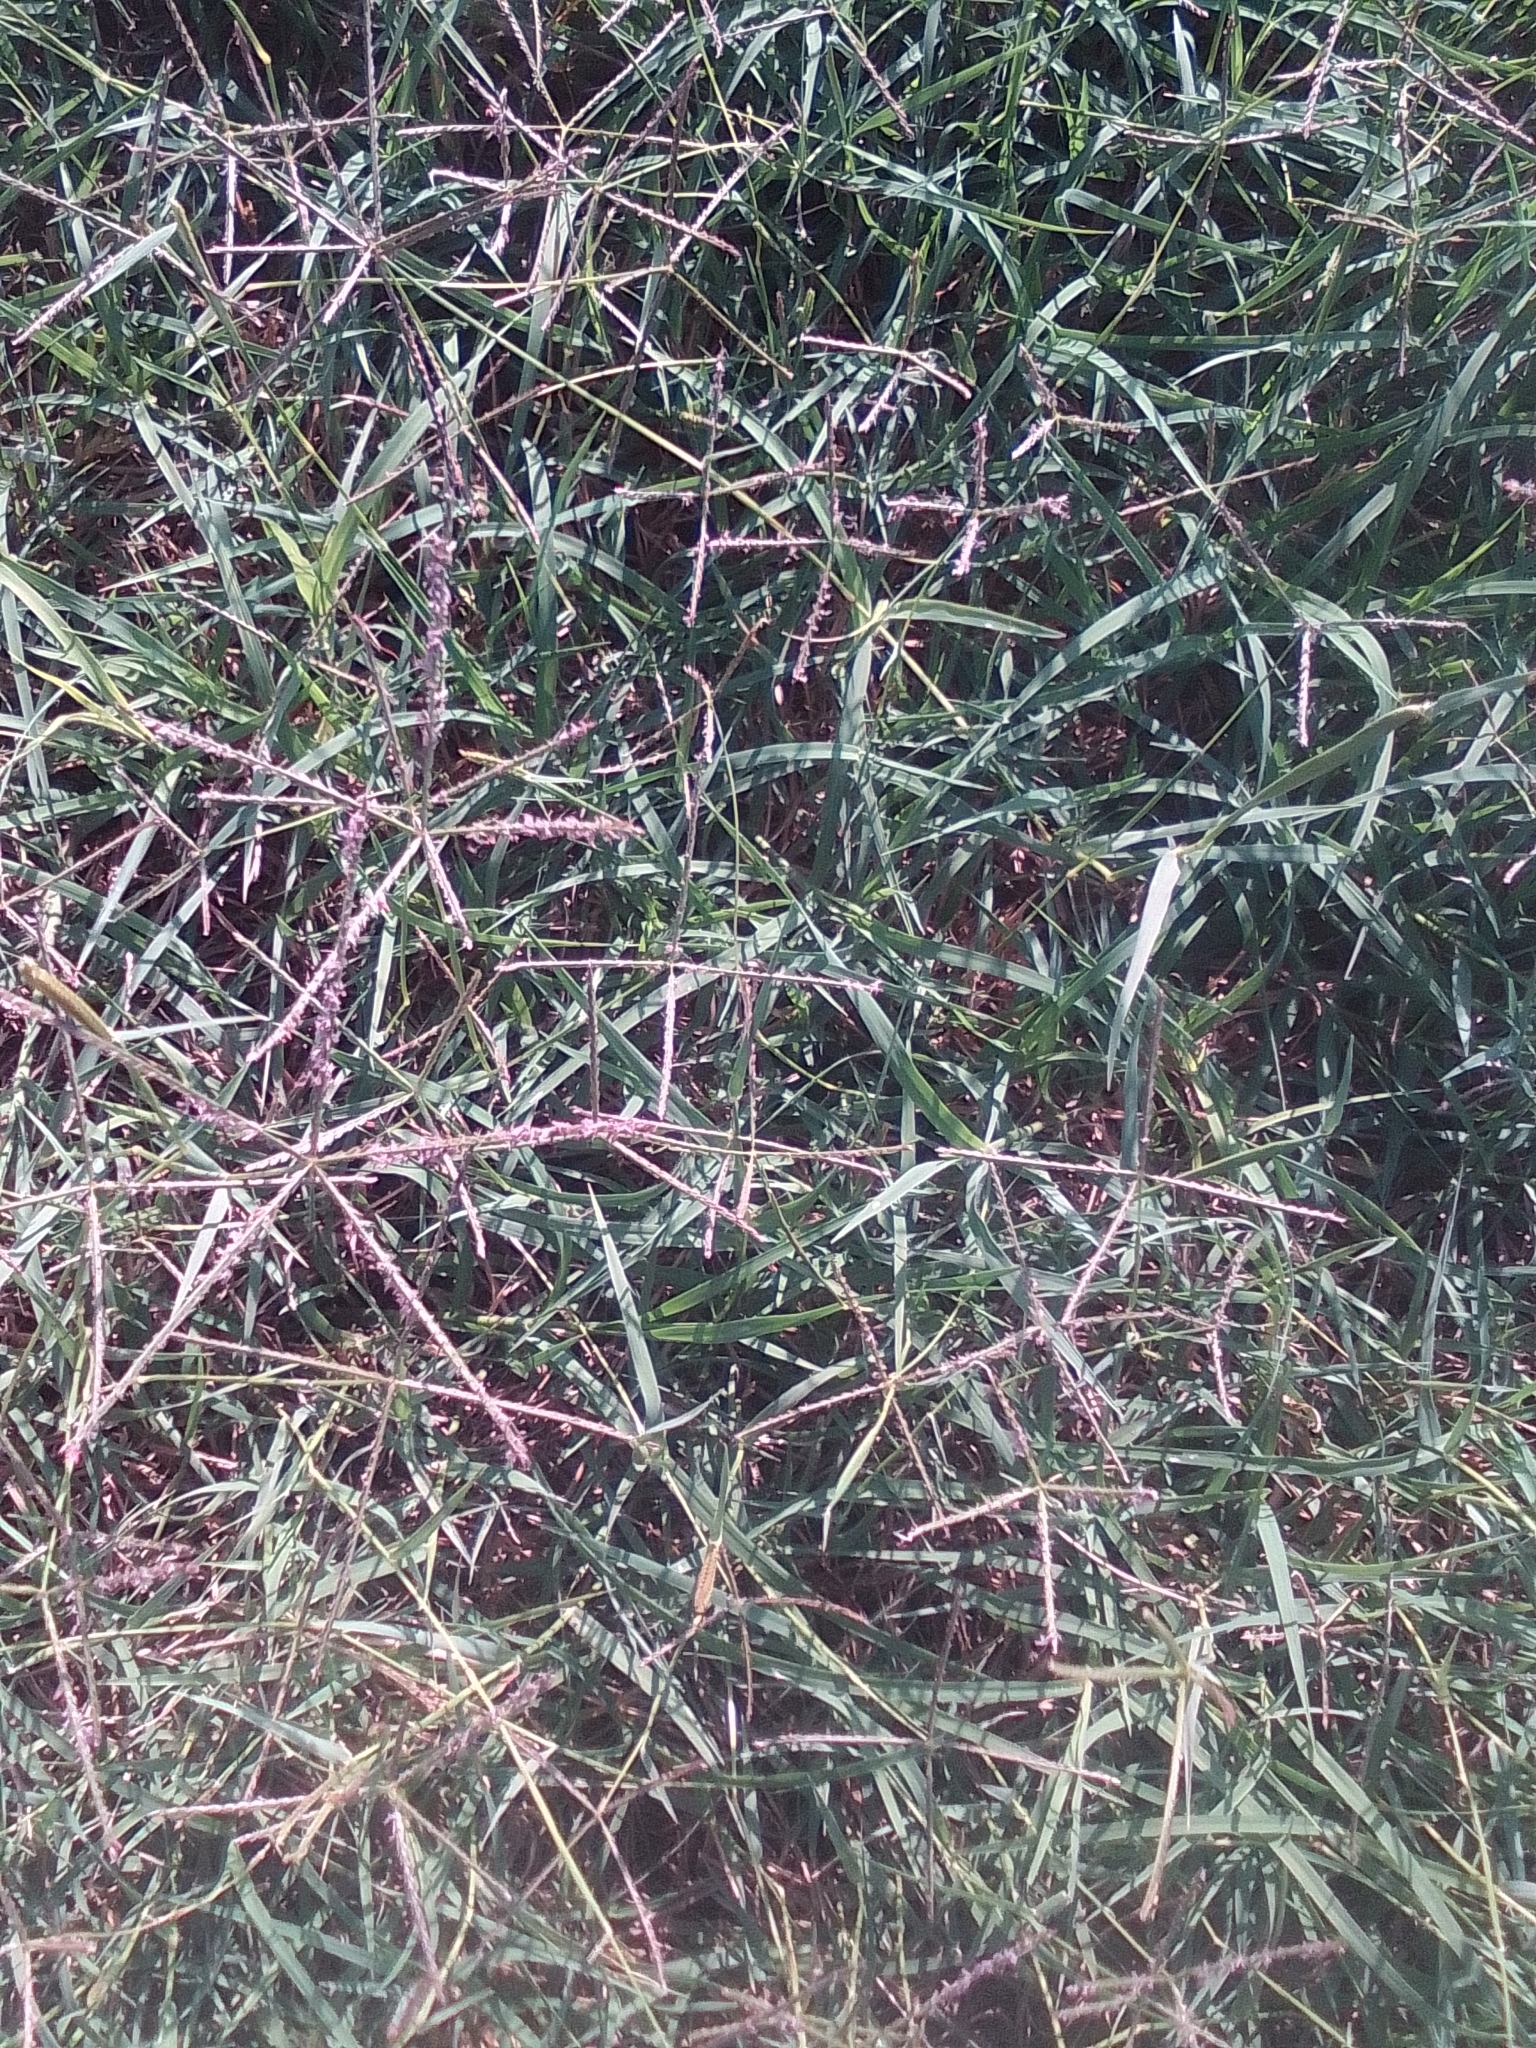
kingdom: Plantae
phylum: Tracheophyta
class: Liliopsida
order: Poales
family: Poaceae
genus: Cynodon
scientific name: Cynodon dactylon
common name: Bermuda grass
